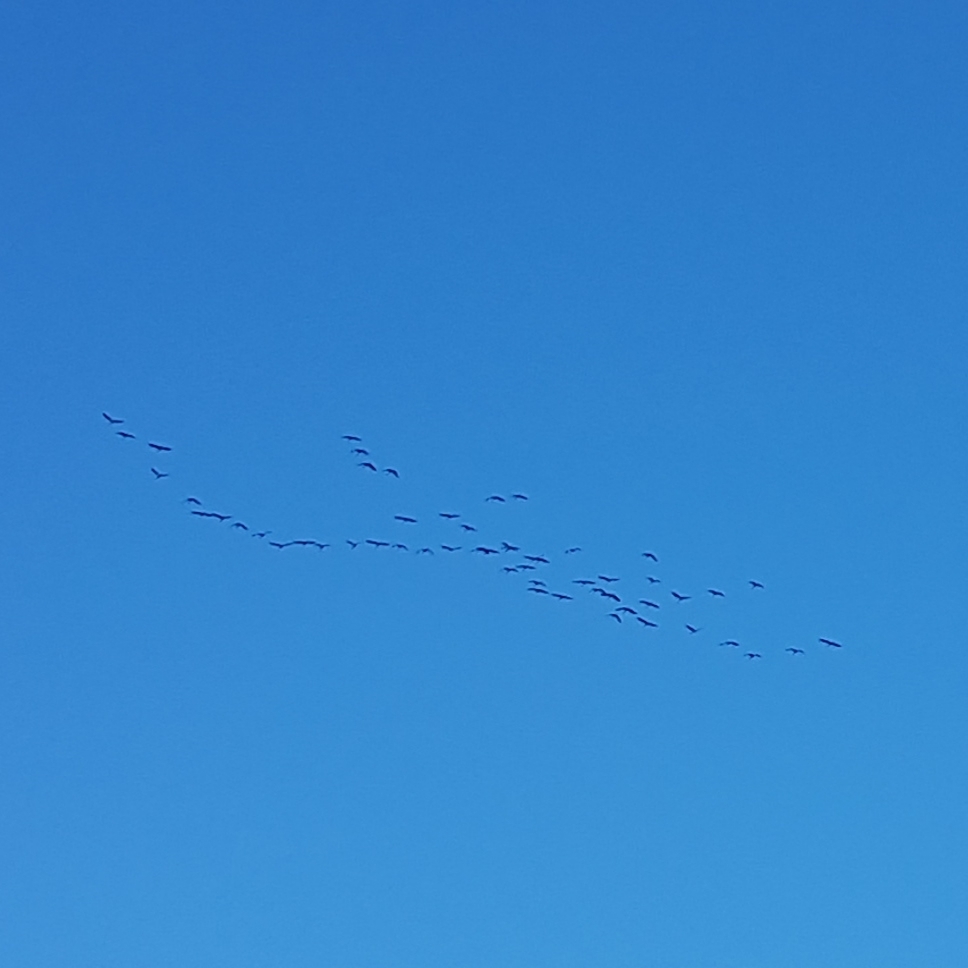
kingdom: Animalia
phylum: Chordata
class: Aves
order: Gruiformes
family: Gruidae
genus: Grus
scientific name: Grus grus
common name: Common crane
